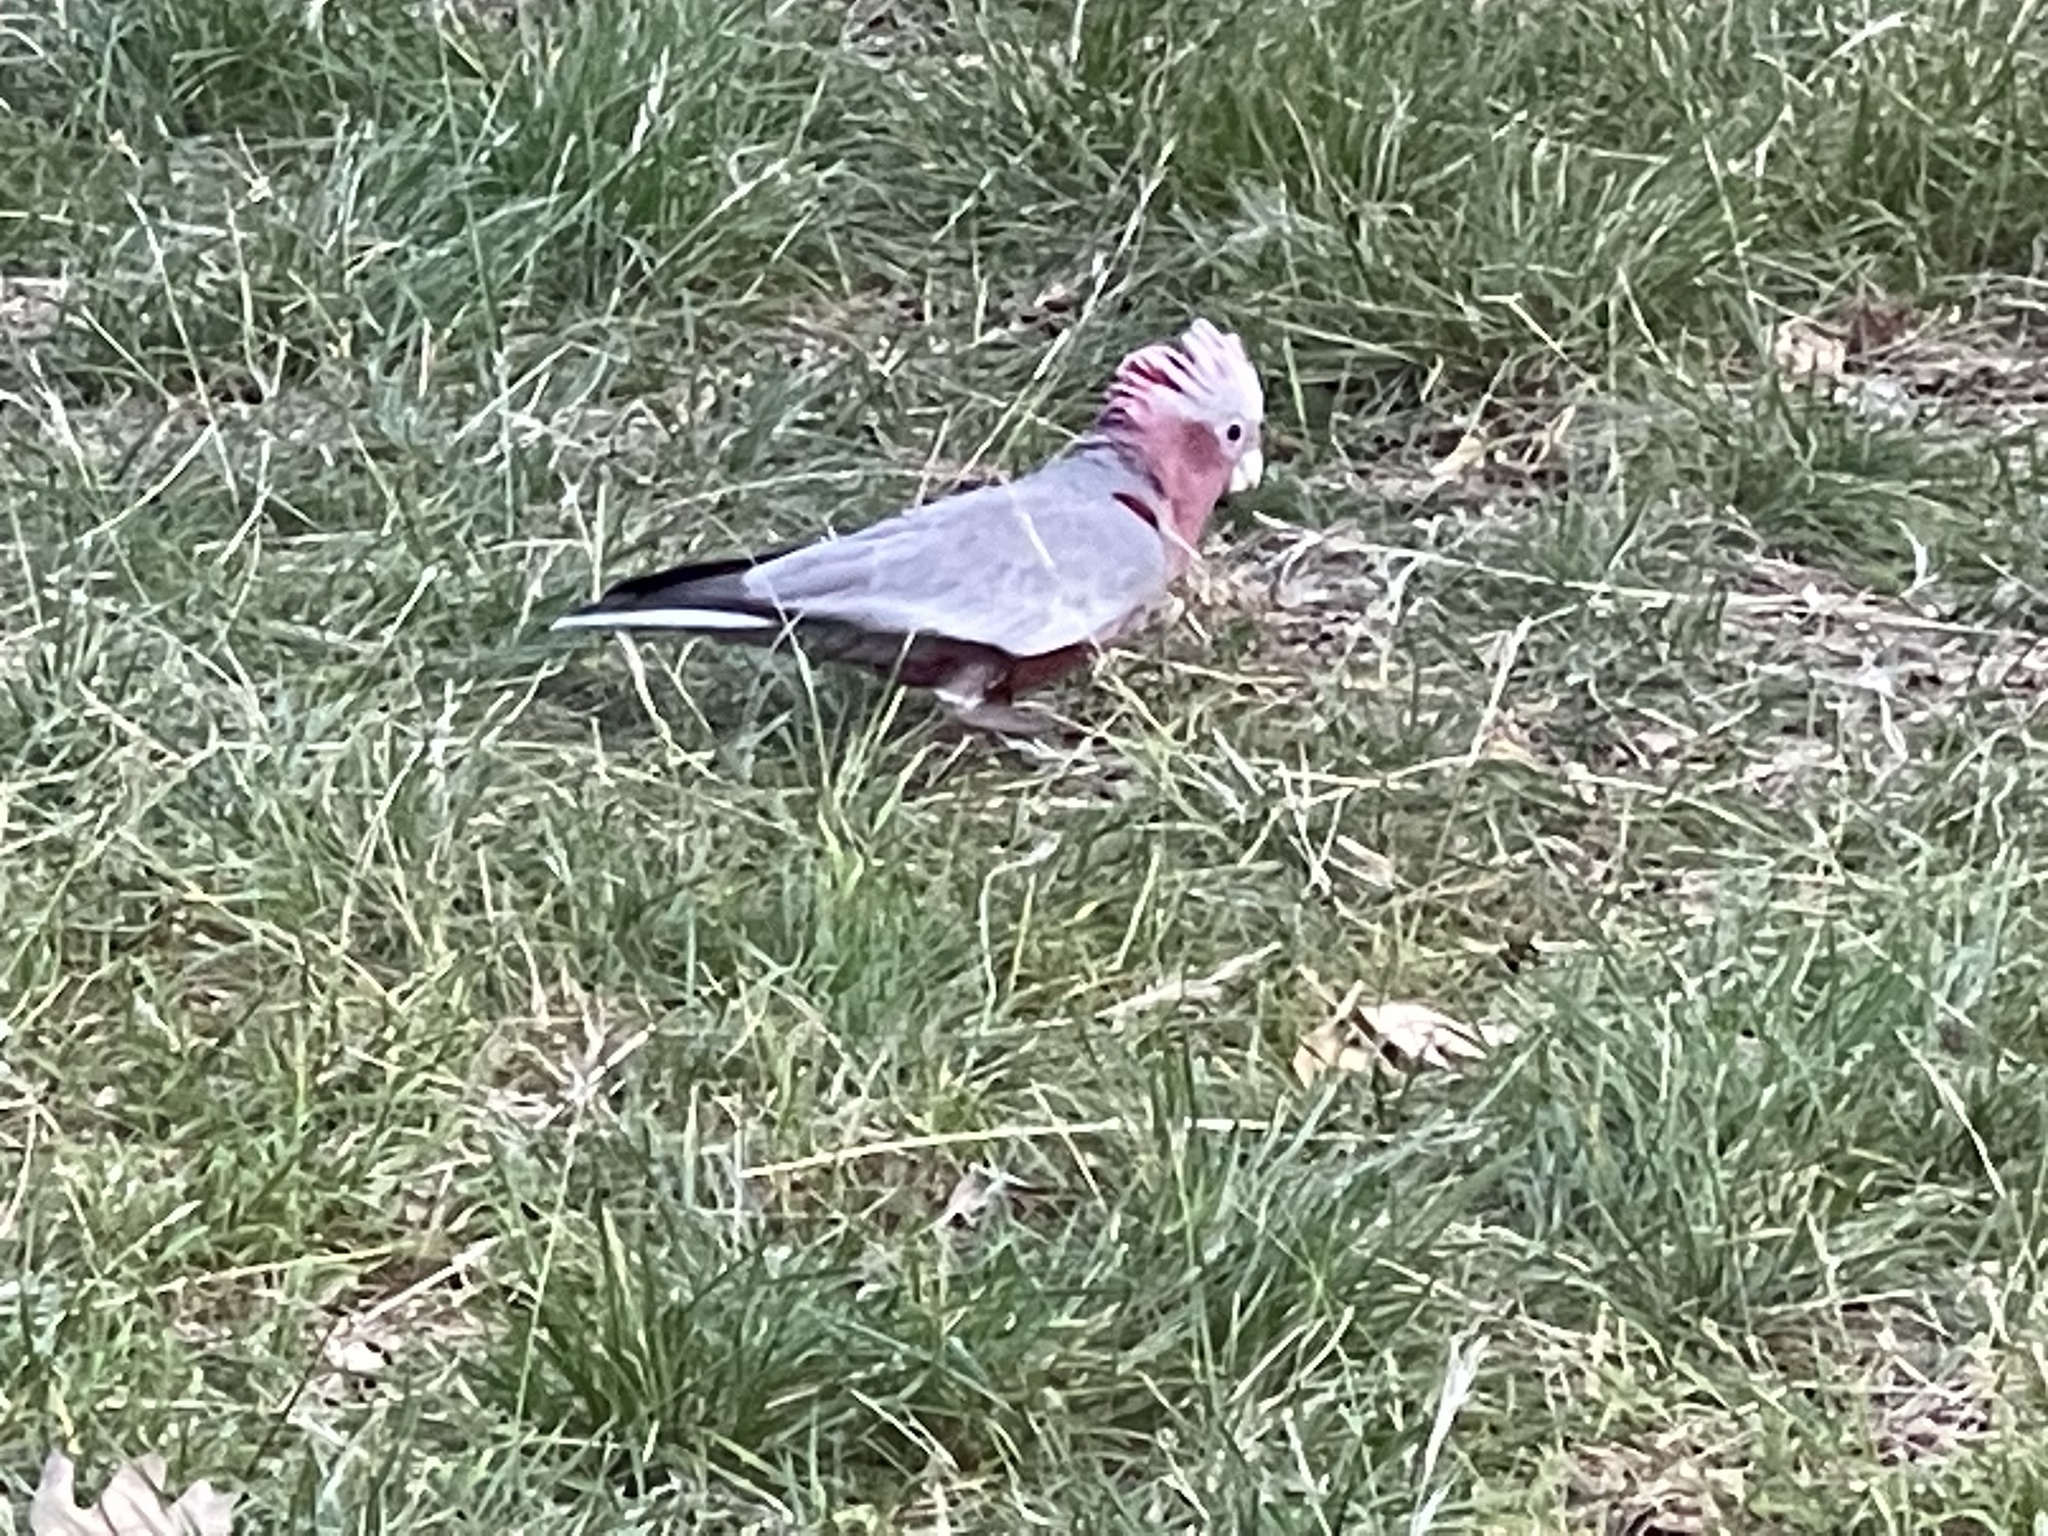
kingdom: Animalia
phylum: Chordata
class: Aves
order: Psittaciformes
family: Psittacidae
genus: Eolophus
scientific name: Eolophus roseicapilla
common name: Galah
